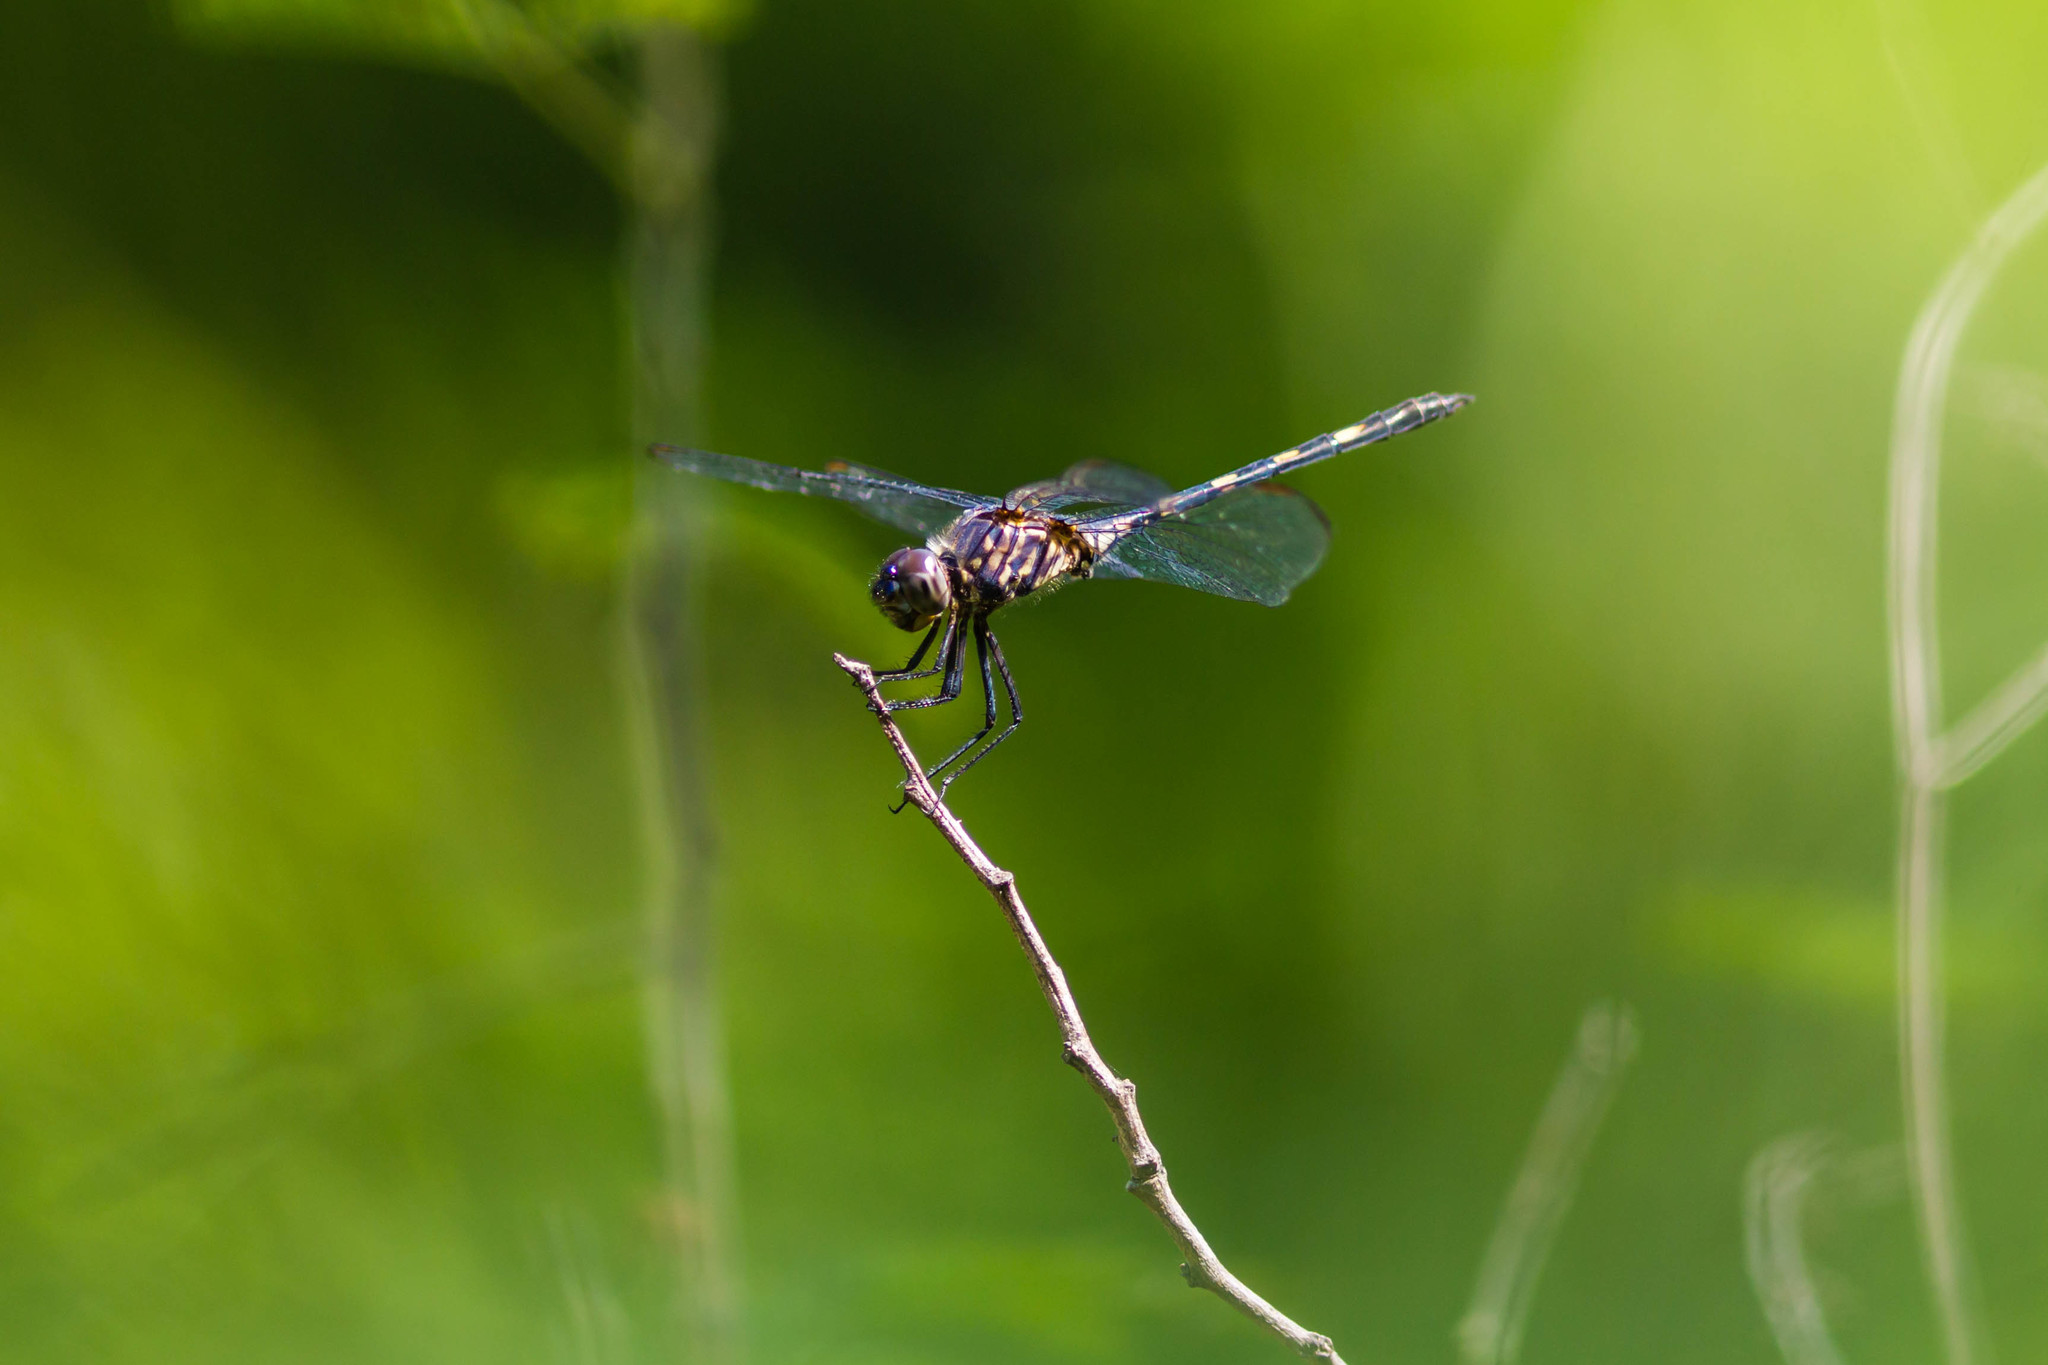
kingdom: Animalia
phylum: Arthropoda
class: Insecta
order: Odonata
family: Libellulidae
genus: Dythemis
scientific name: Dythemis nigrescens
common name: Black setwing
